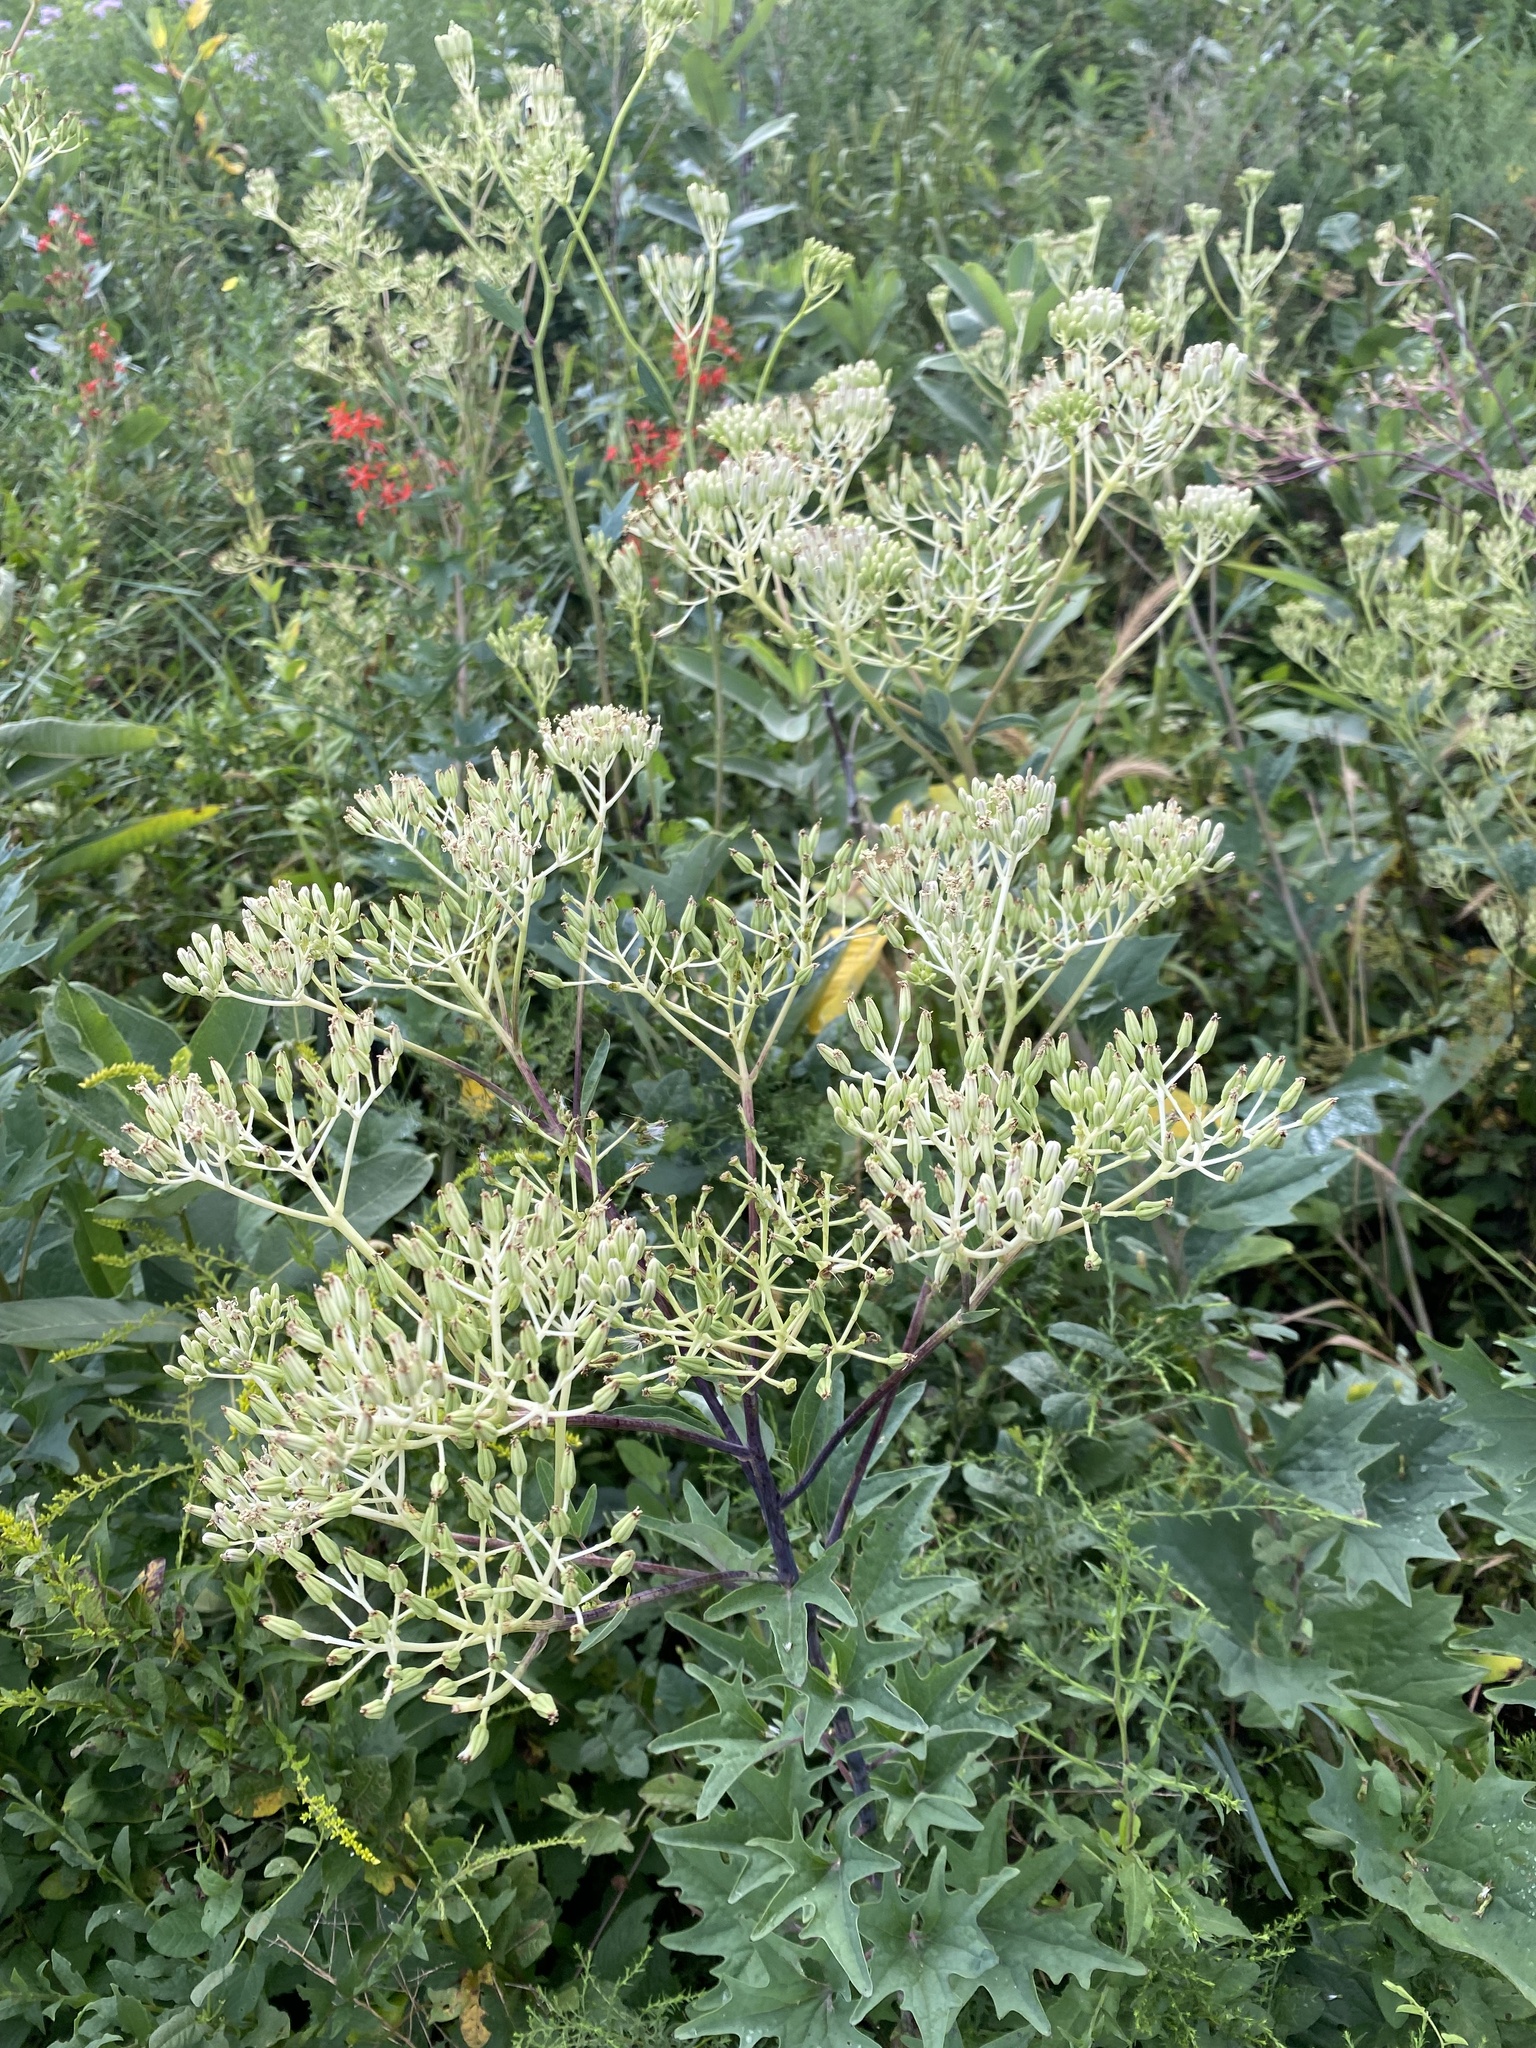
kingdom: Plantae
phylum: Tracheophyta
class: Magnoliopsida
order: Asterales
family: Asteraceae
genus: Arnoglossum
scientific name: Arnoglossum atriplicifolium
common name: Pale indian-plantain
